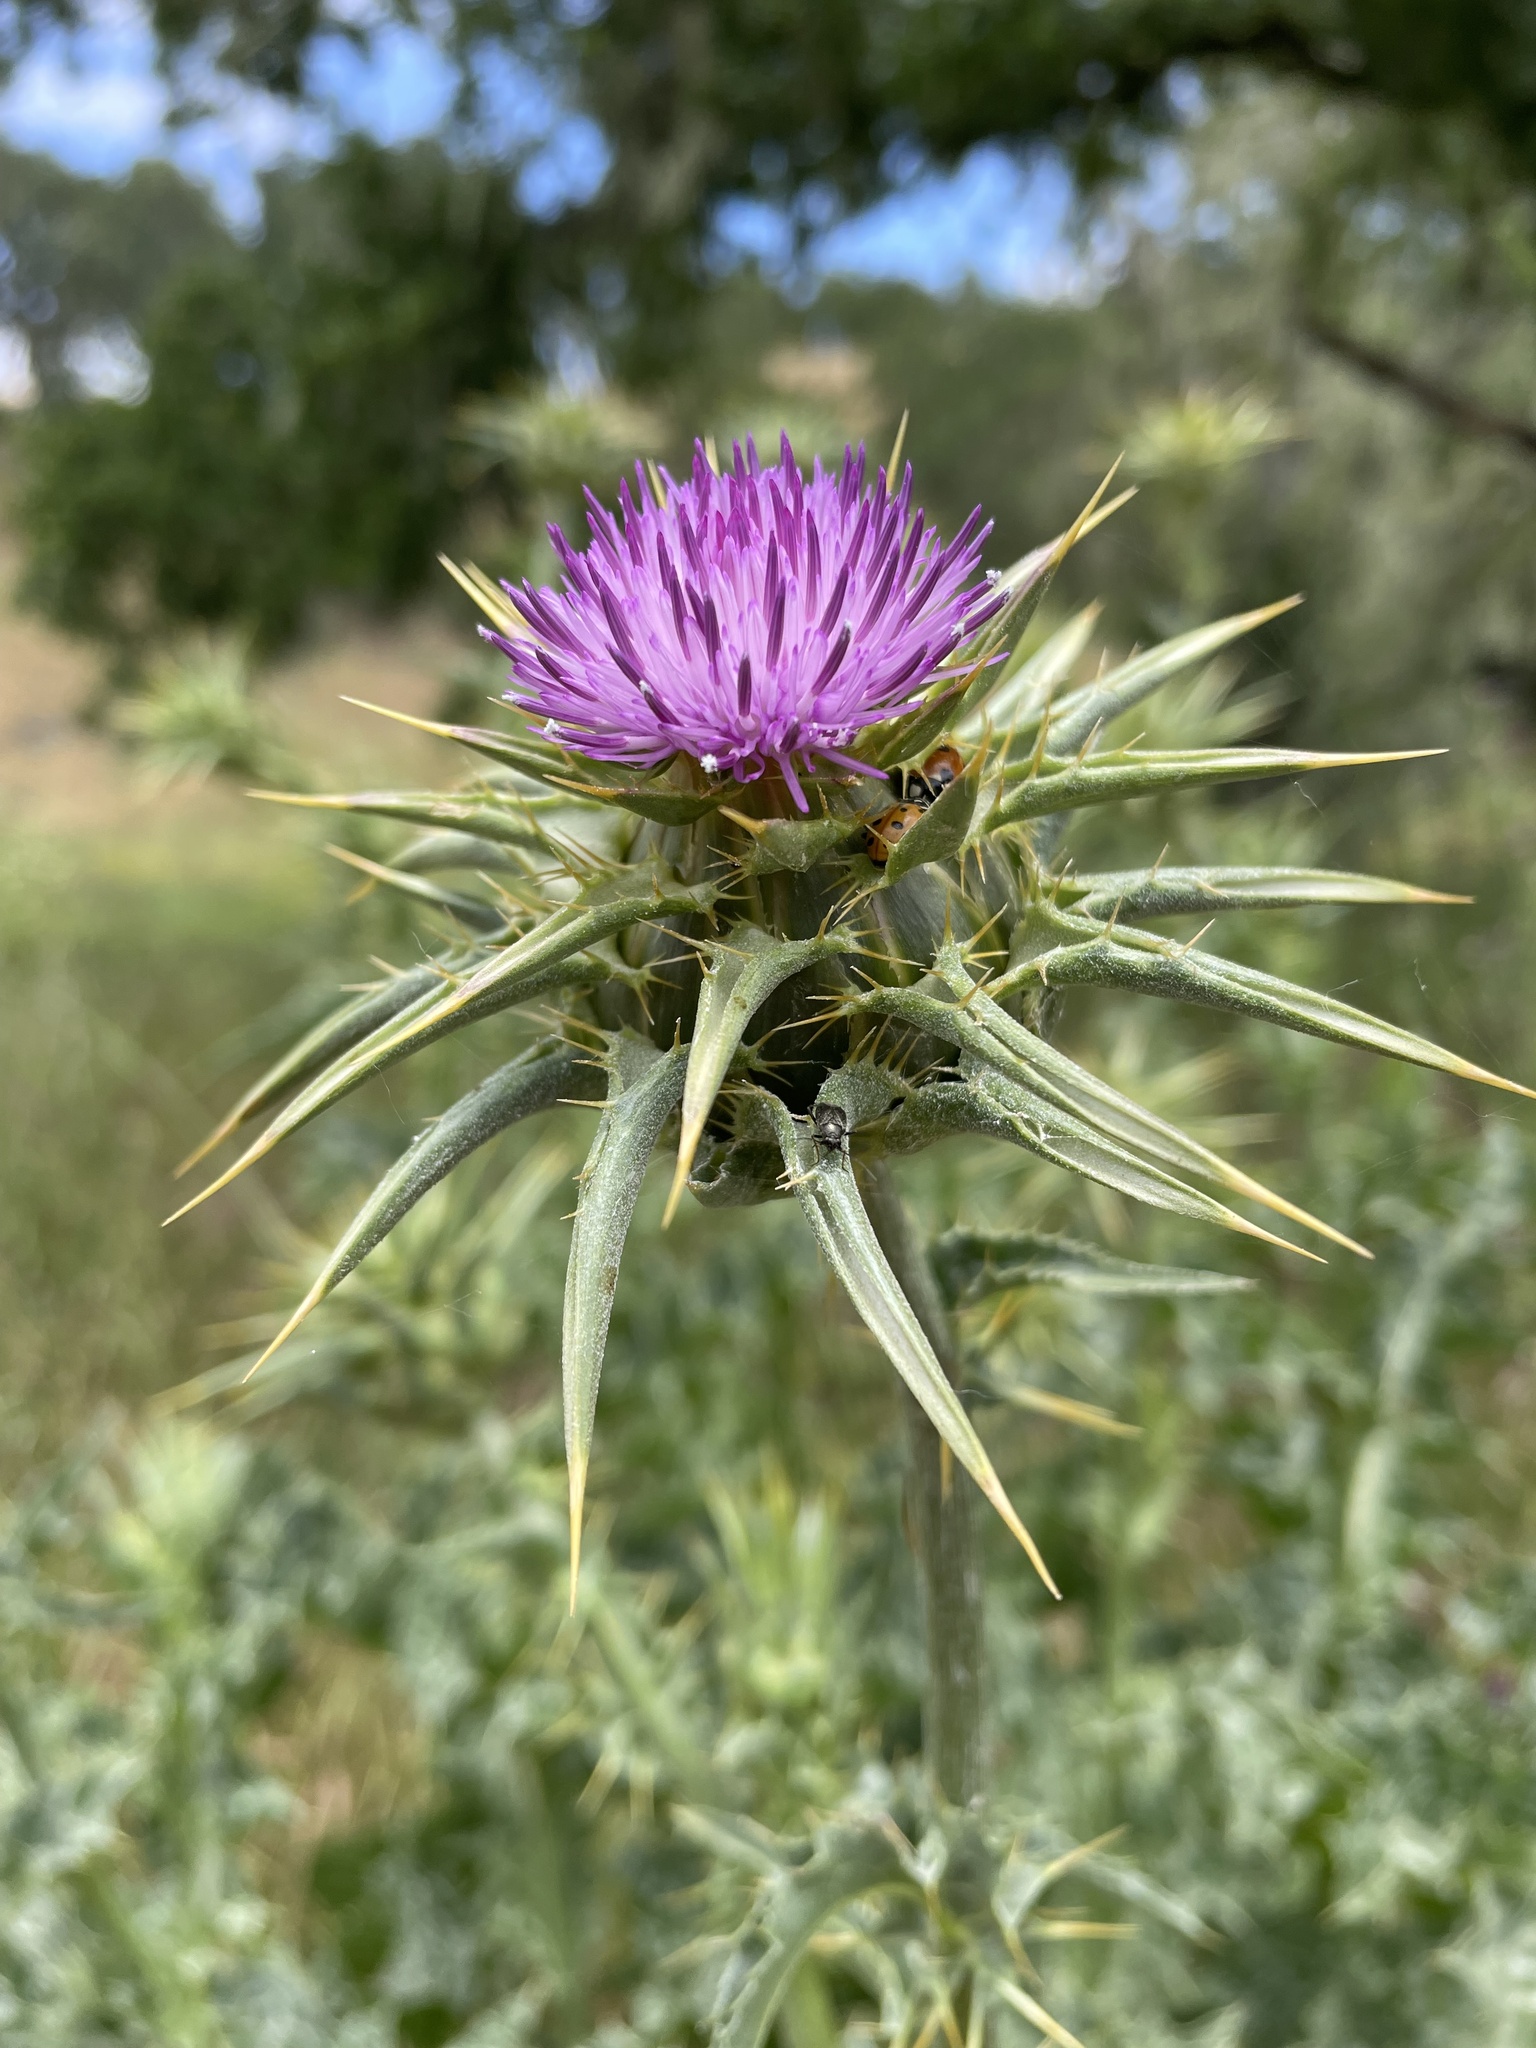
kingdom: Plantae
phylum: Tracheophyta
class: Magnoliopsida
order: Asterales
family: Asteraceae
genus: Silybum
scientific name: Silybum marianum
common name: Milk thistle
